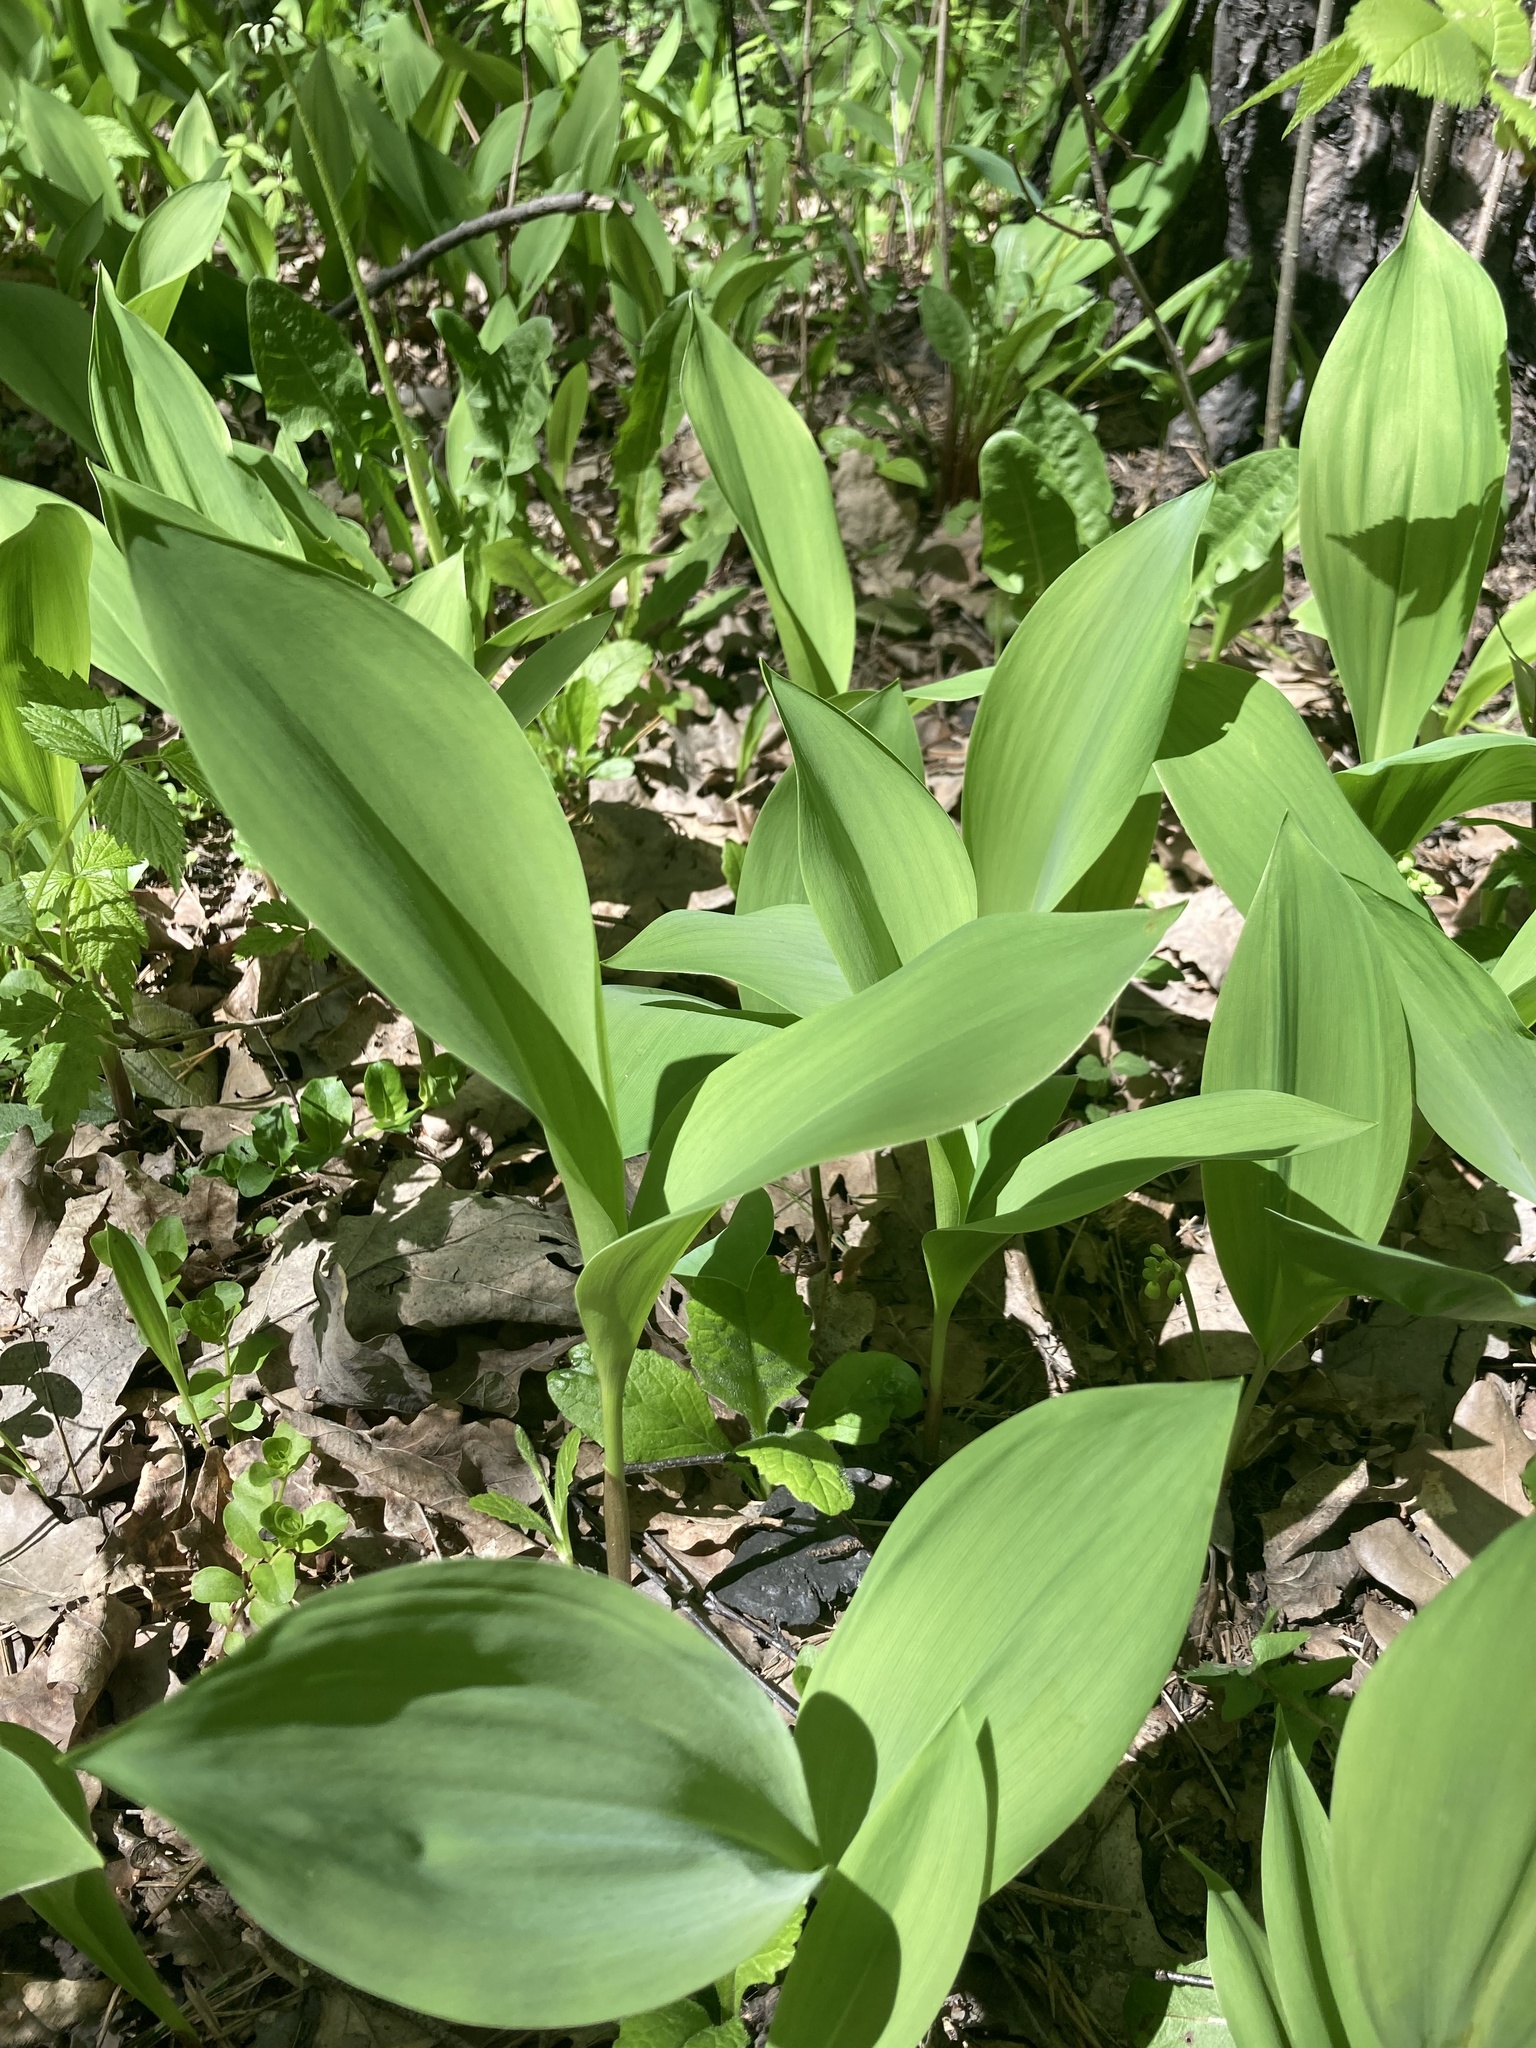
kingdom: Plantae
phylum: Tracheophyta
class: Liliopsida
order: Asparagales
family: Asparagaceae
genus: Convallaria
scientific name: Convallaria majalis
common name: Lily-of-the-valley
